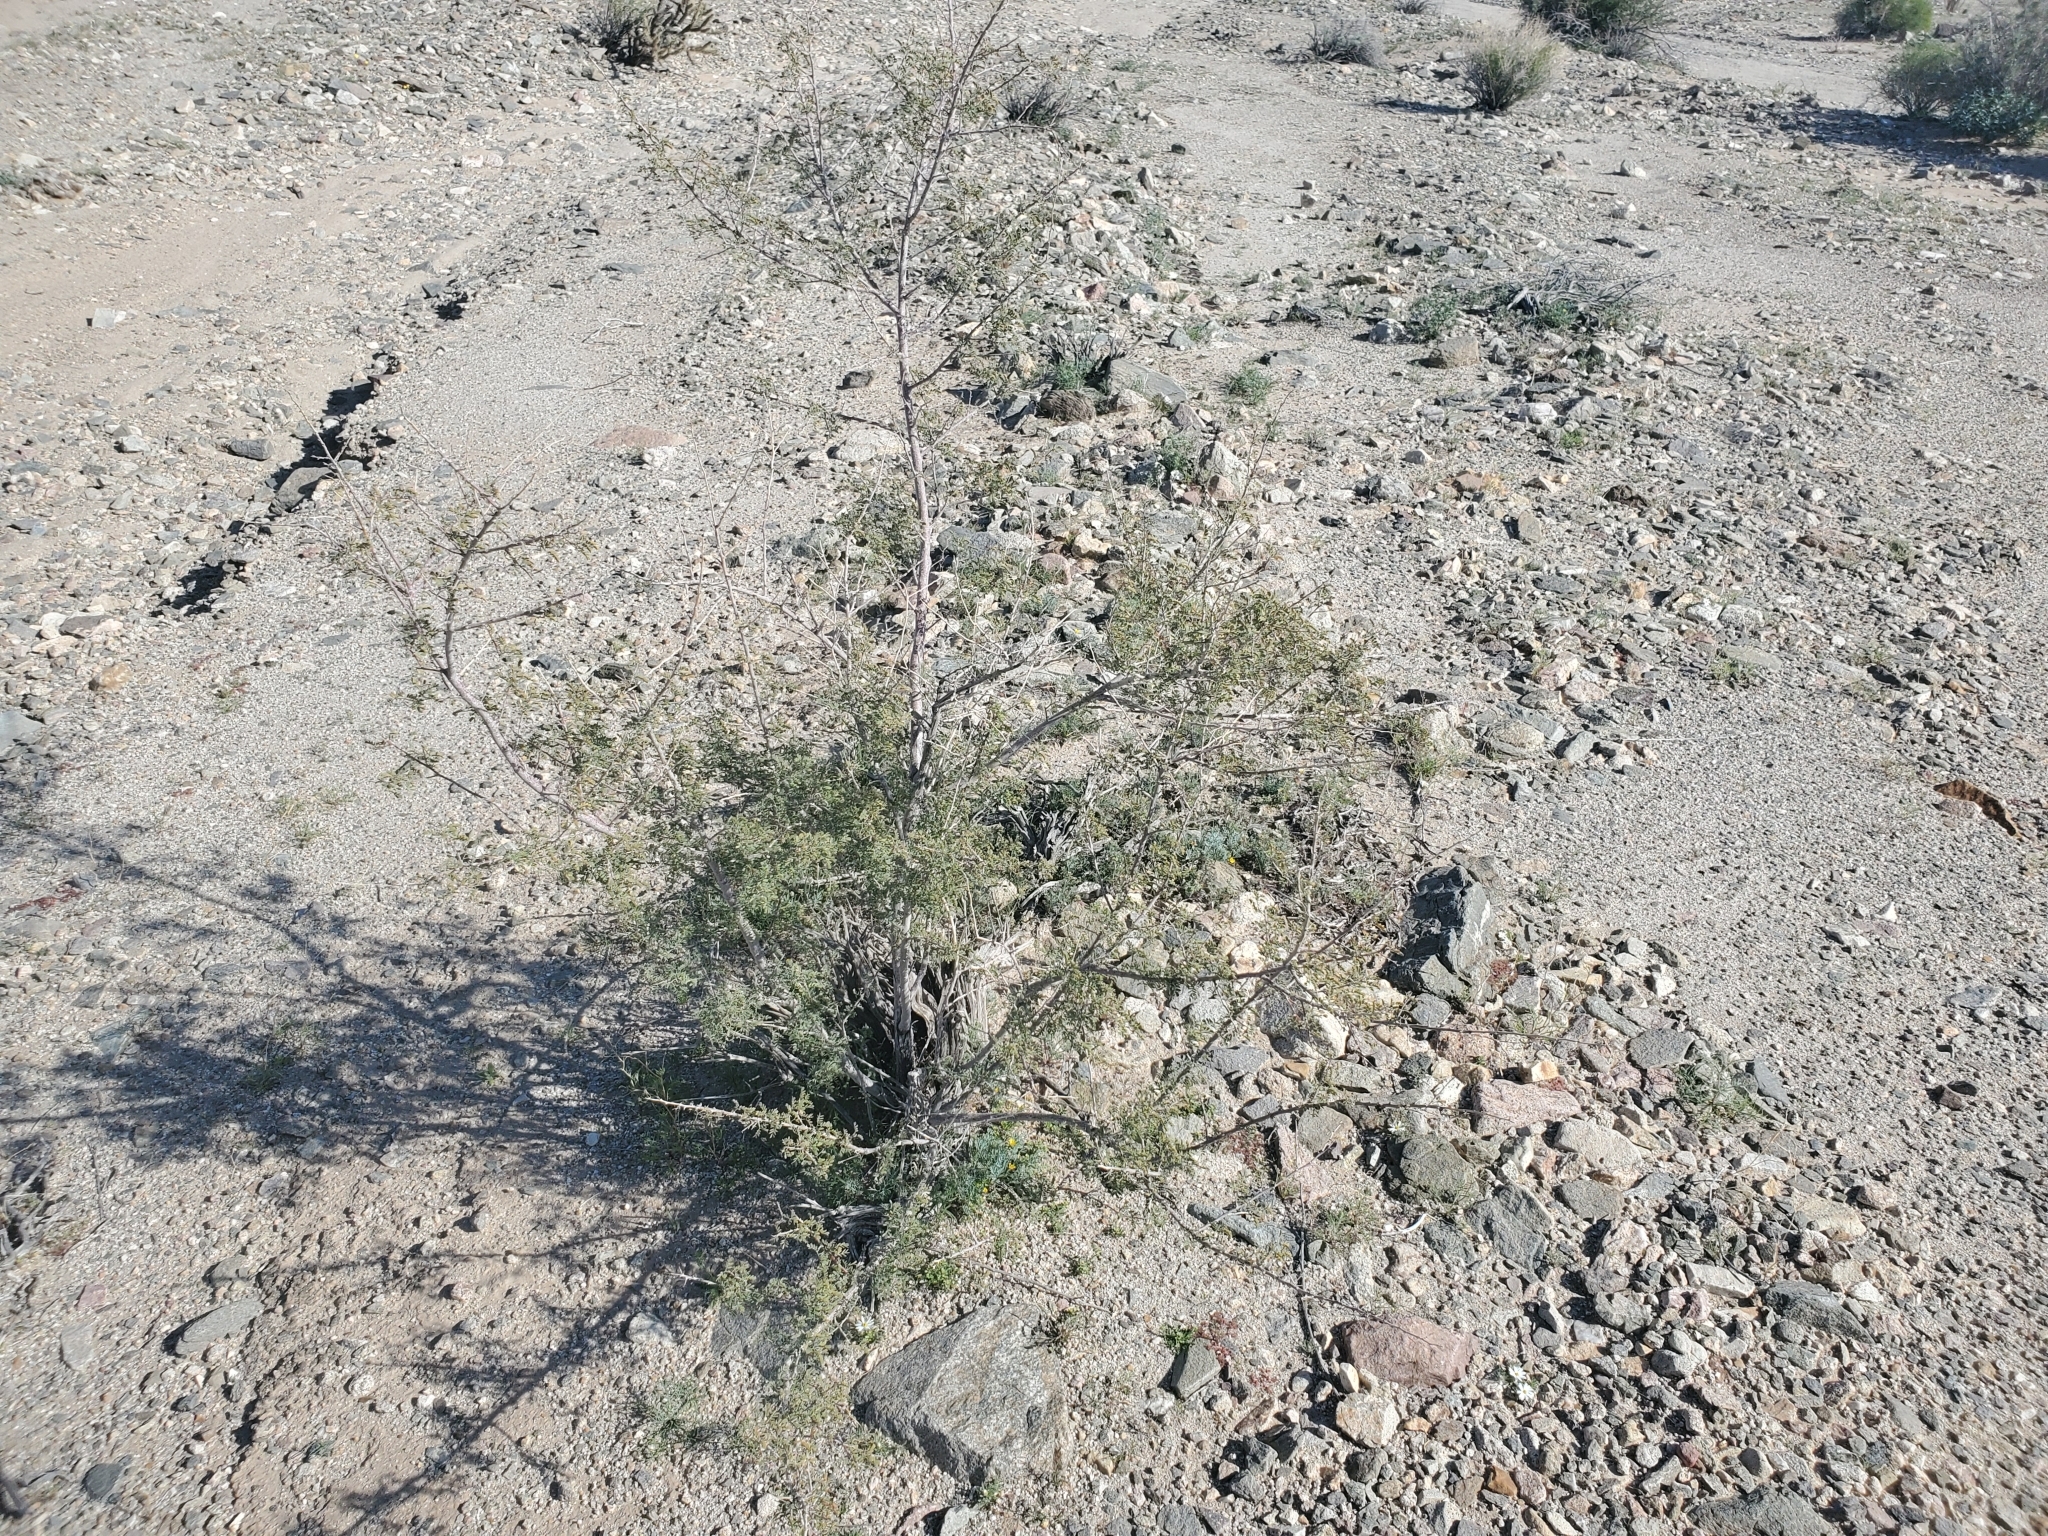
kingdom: Plantae
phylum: Tracheophyta
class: Magnoliopsida
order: Fabales
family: Fabaceae
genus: Senegalia
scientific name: Senegalia greggii
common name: Texas-mimosa
